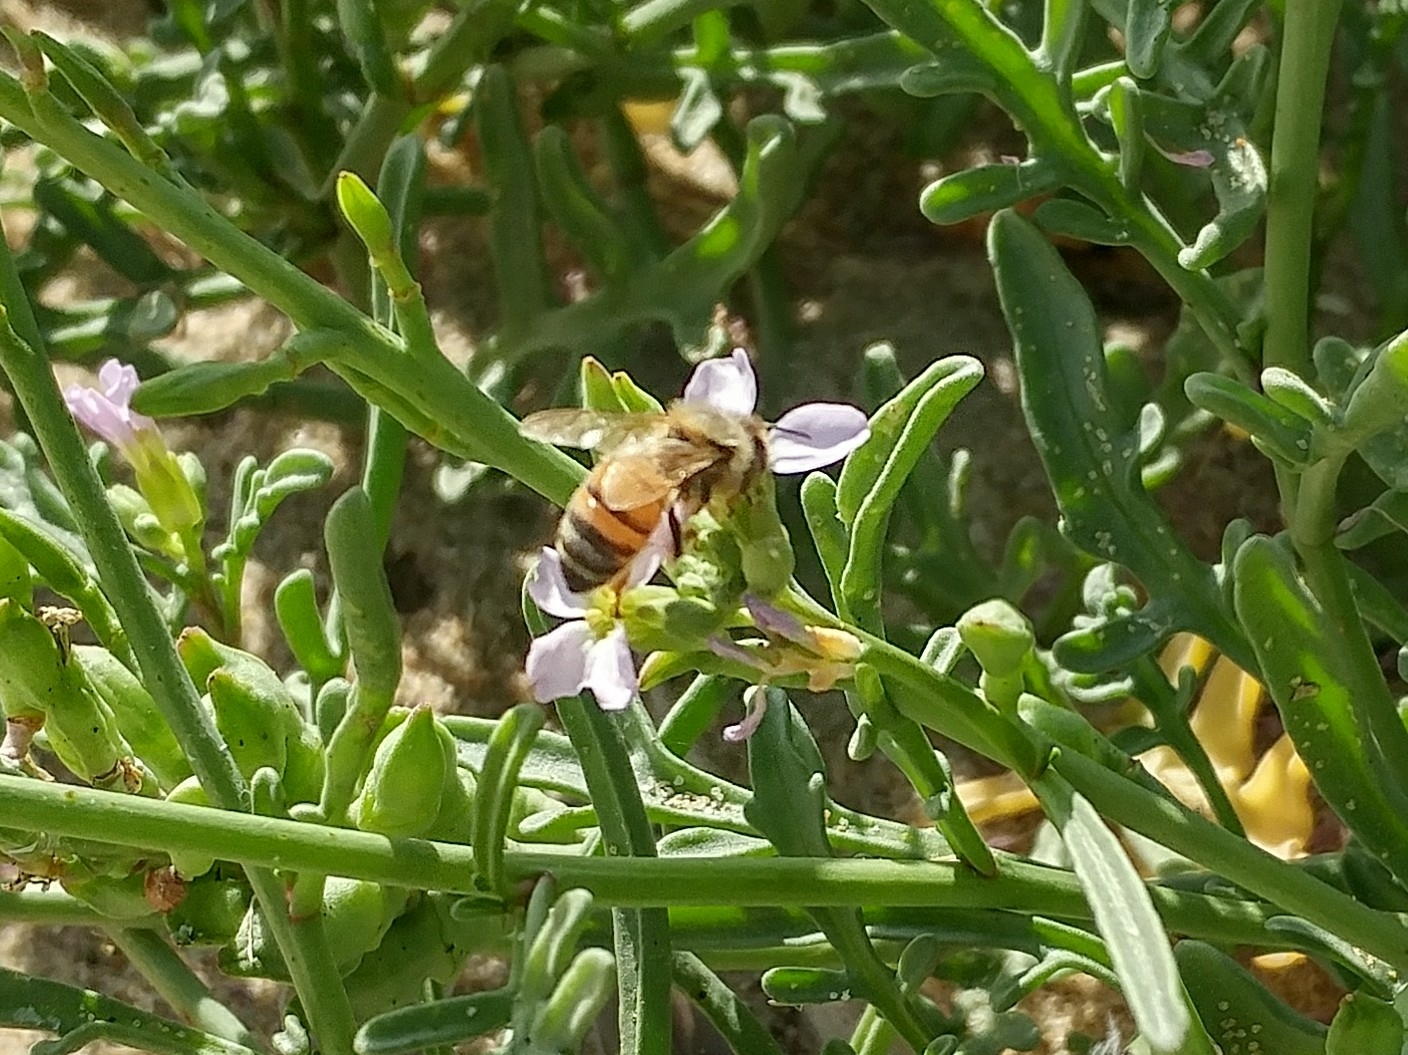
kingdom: Animalia
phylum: Arthropoda
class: Insecta
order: Hymenoptera
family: Apidae
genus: Apis
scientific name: Apis mellifera
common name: Honey bee
